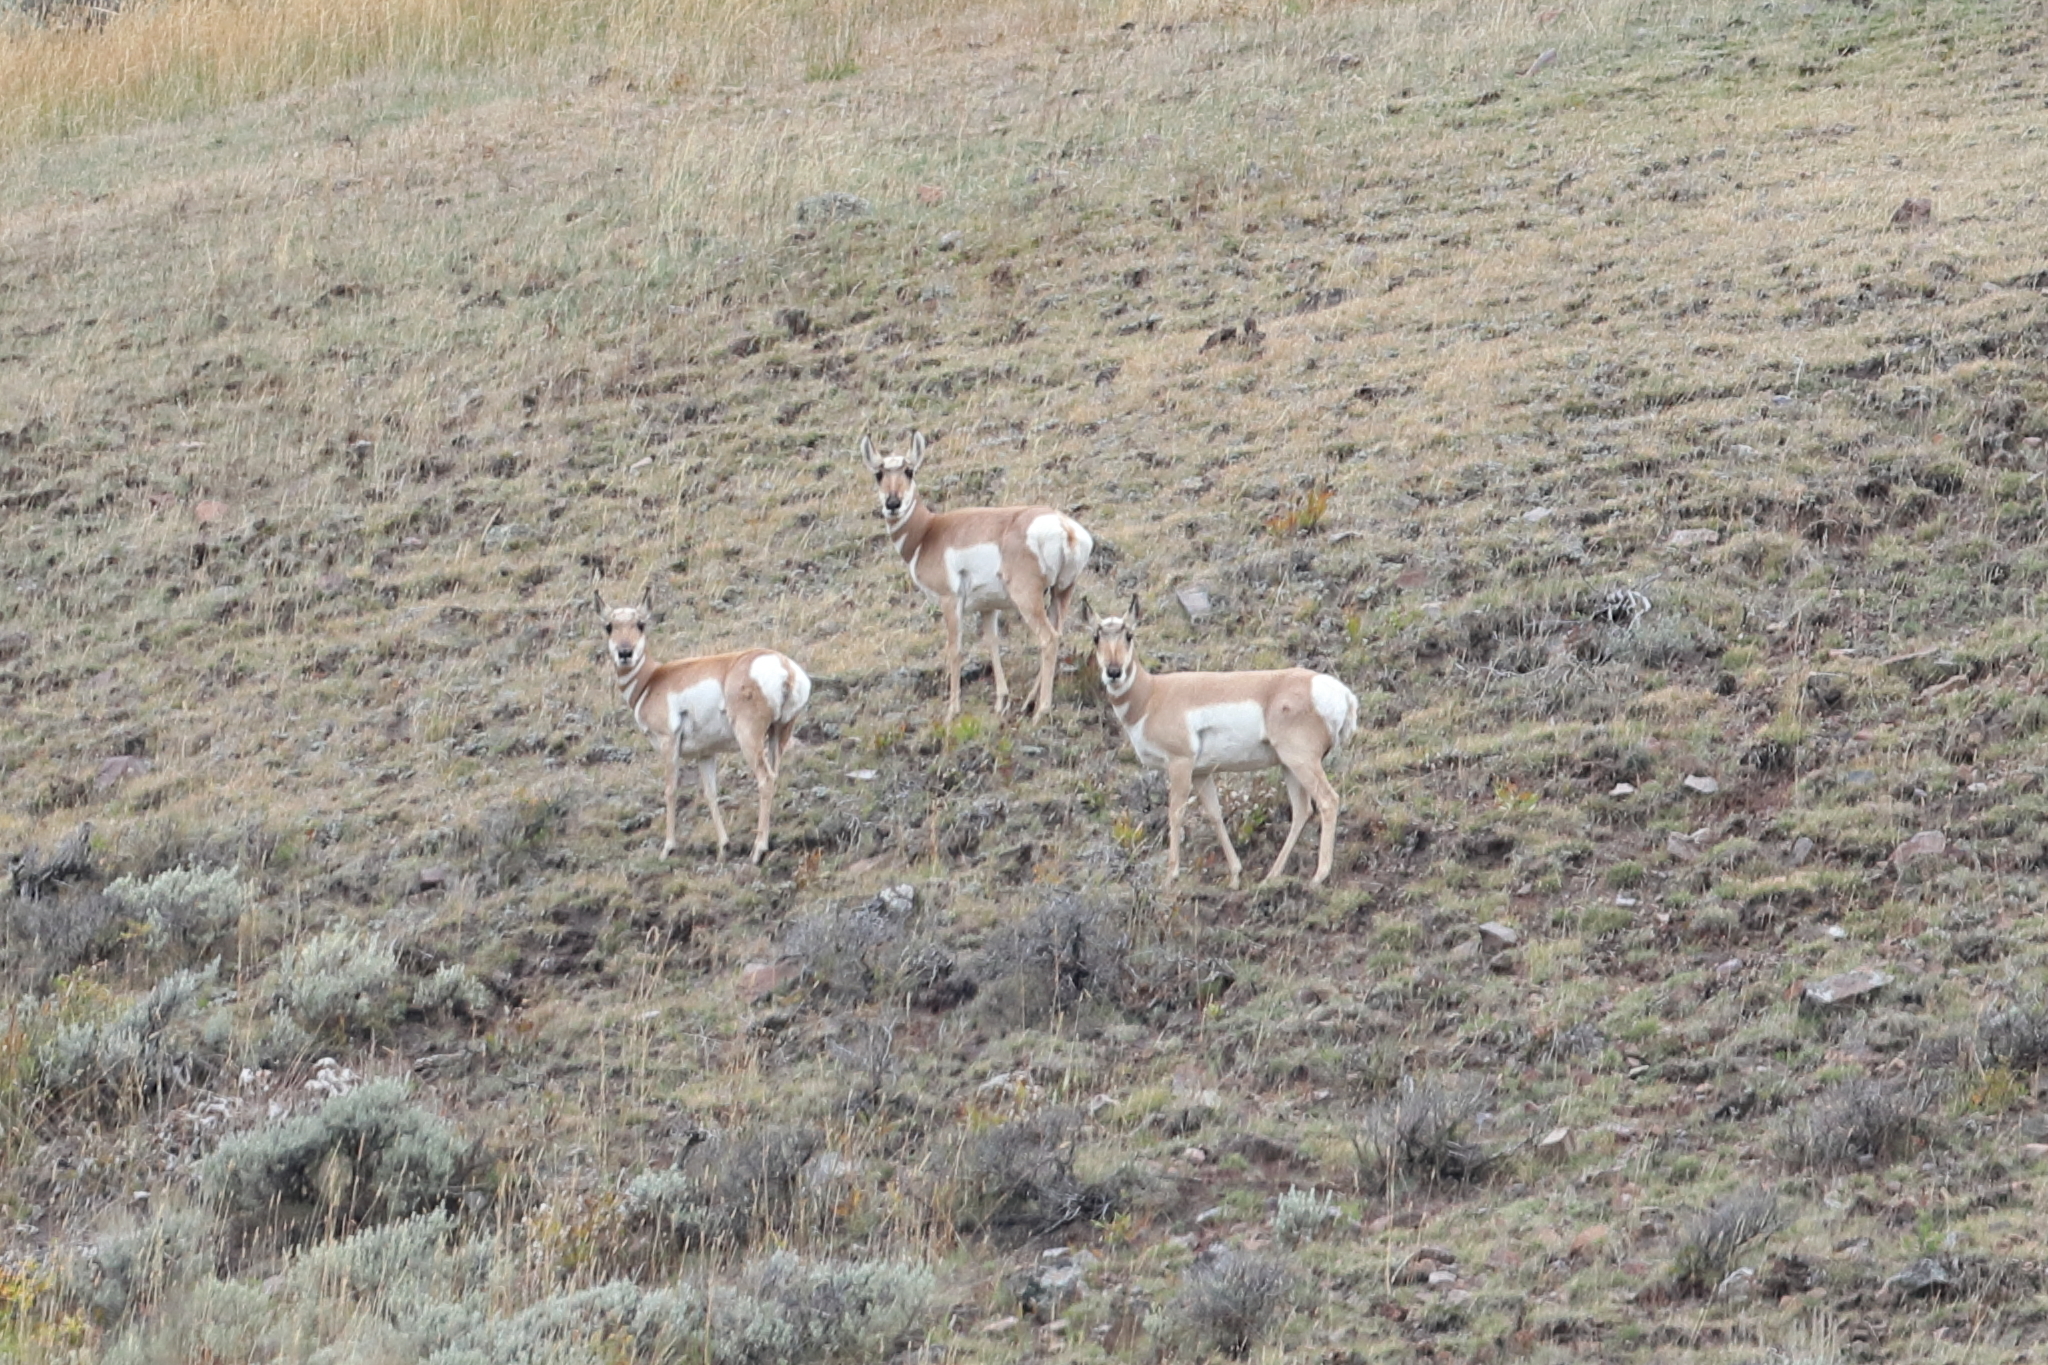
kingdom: Animalia
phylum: Chordata
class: Mammalia
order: Artiodactyla
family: Antilocapridae
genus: Antilocapra
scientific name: Antilocapra americana
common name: Pronghorn
